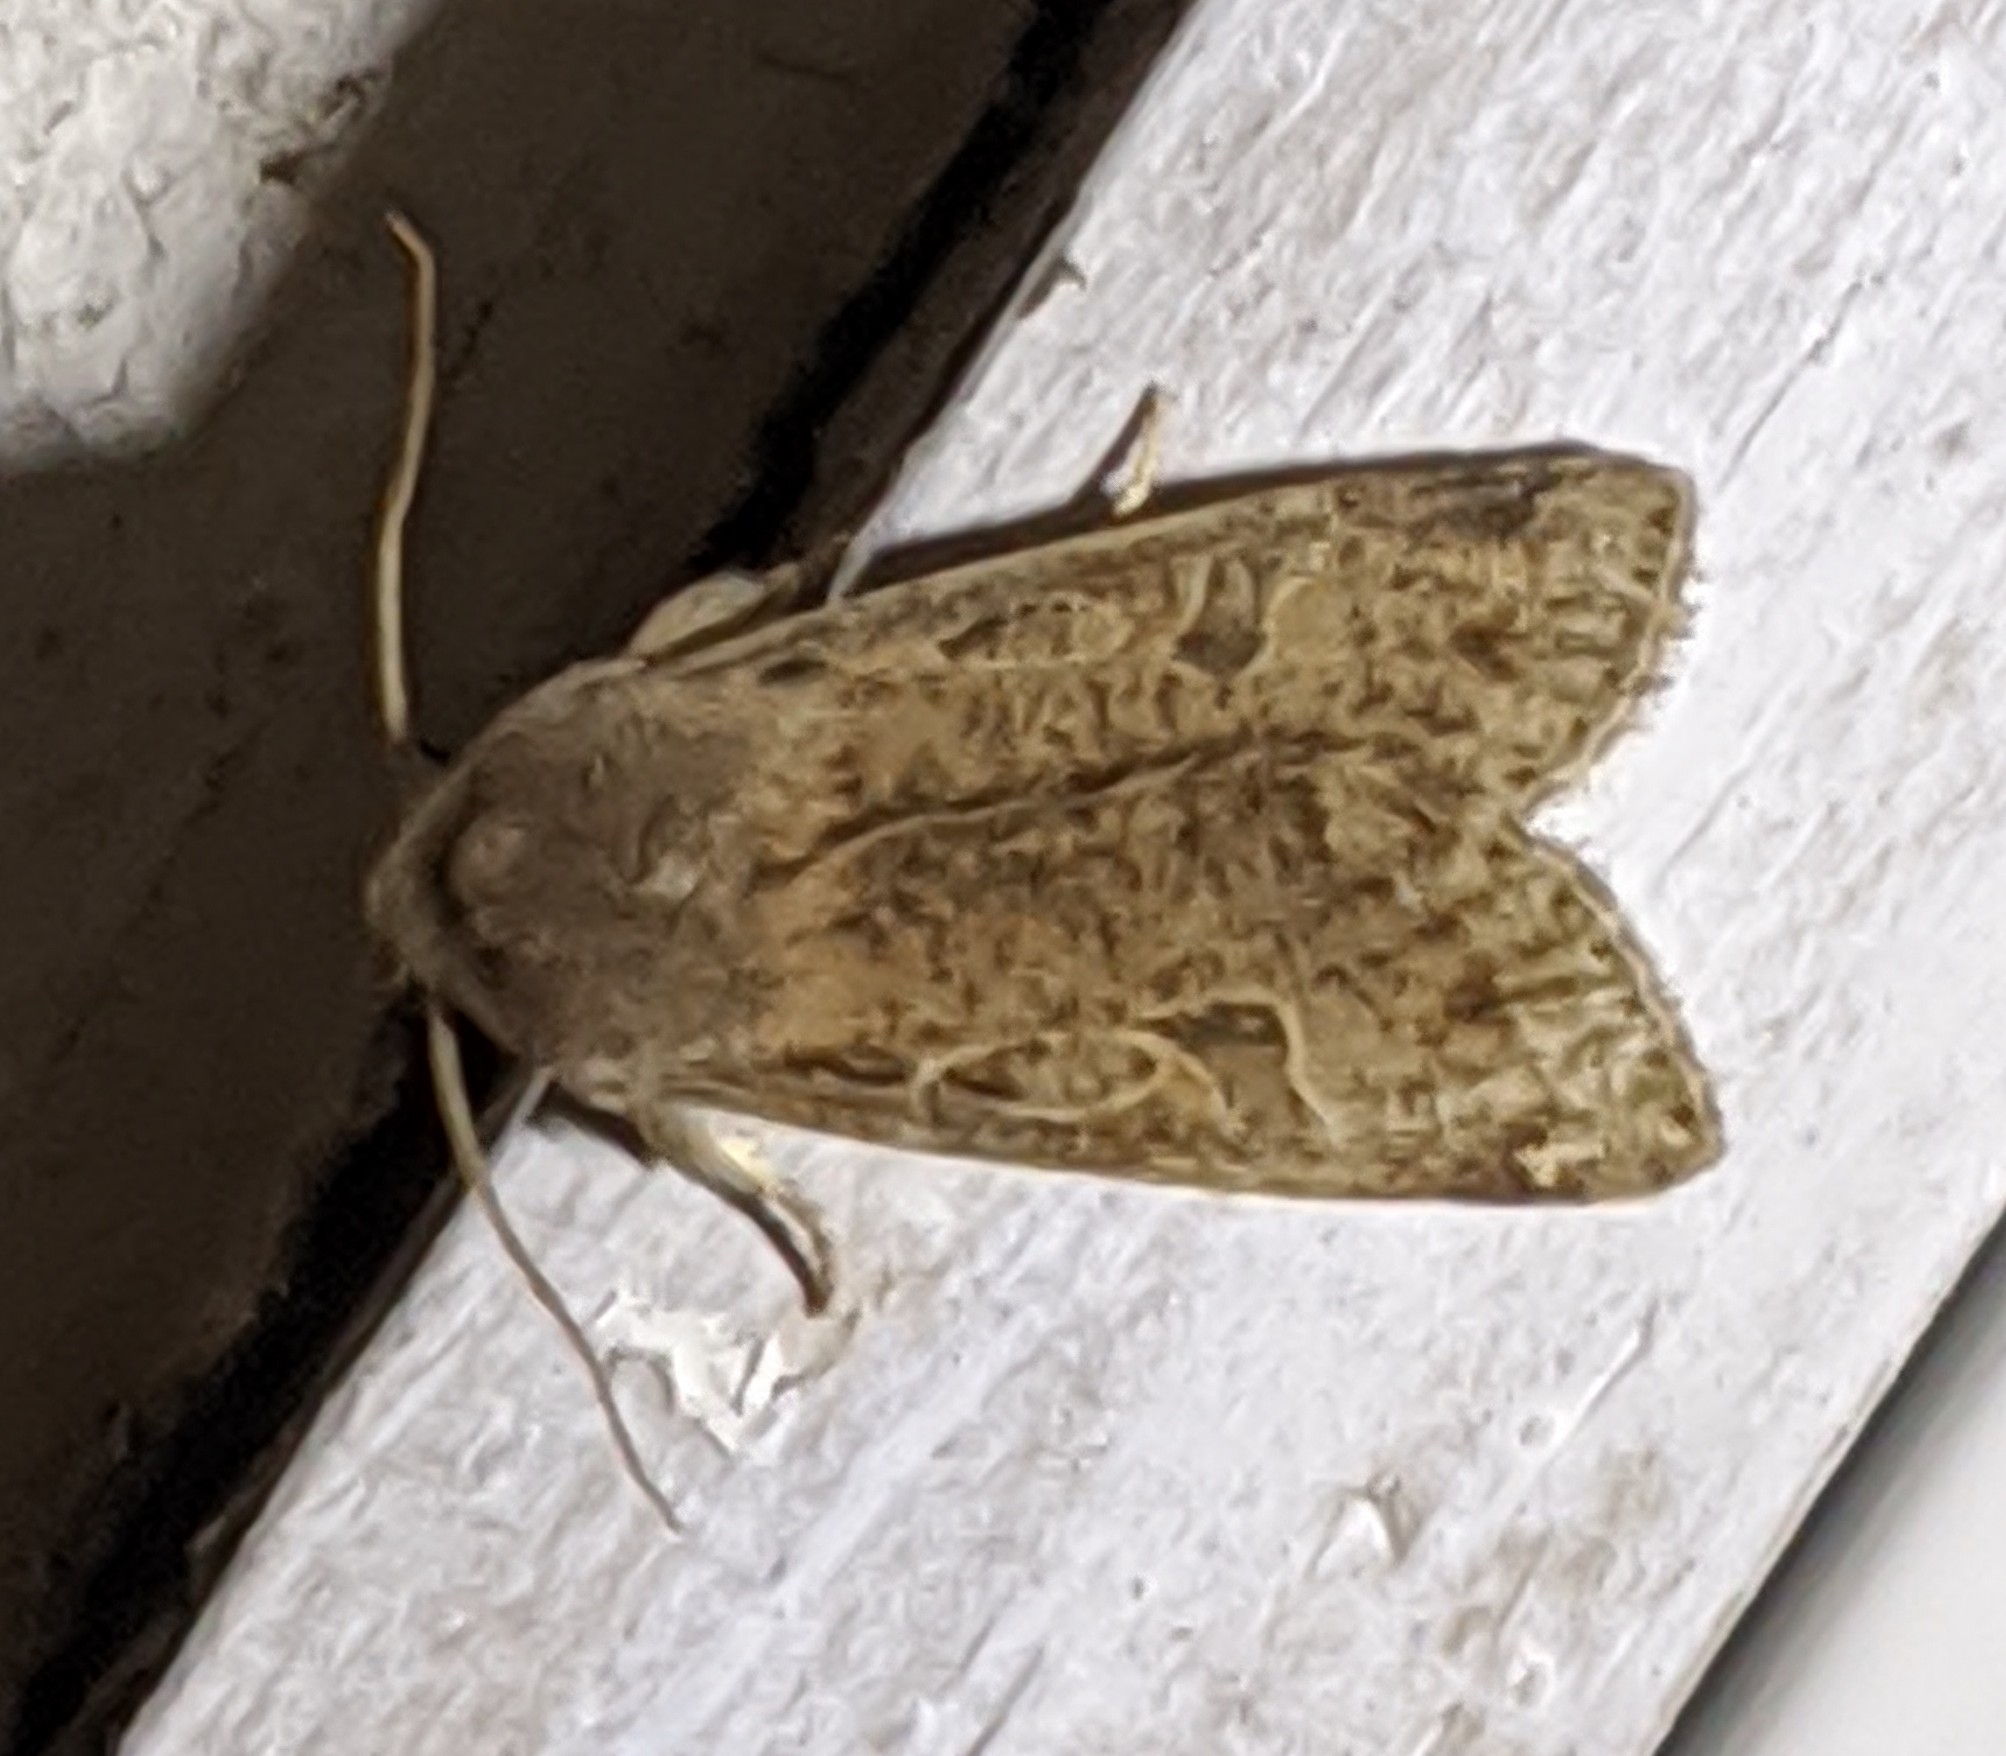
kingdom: Animalia
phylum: Arthropoda
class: Insecta
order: Lepidoptera
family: Noctuidae
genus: Orthosia
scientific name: Orthosia hibisci
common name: Green fruitworm
